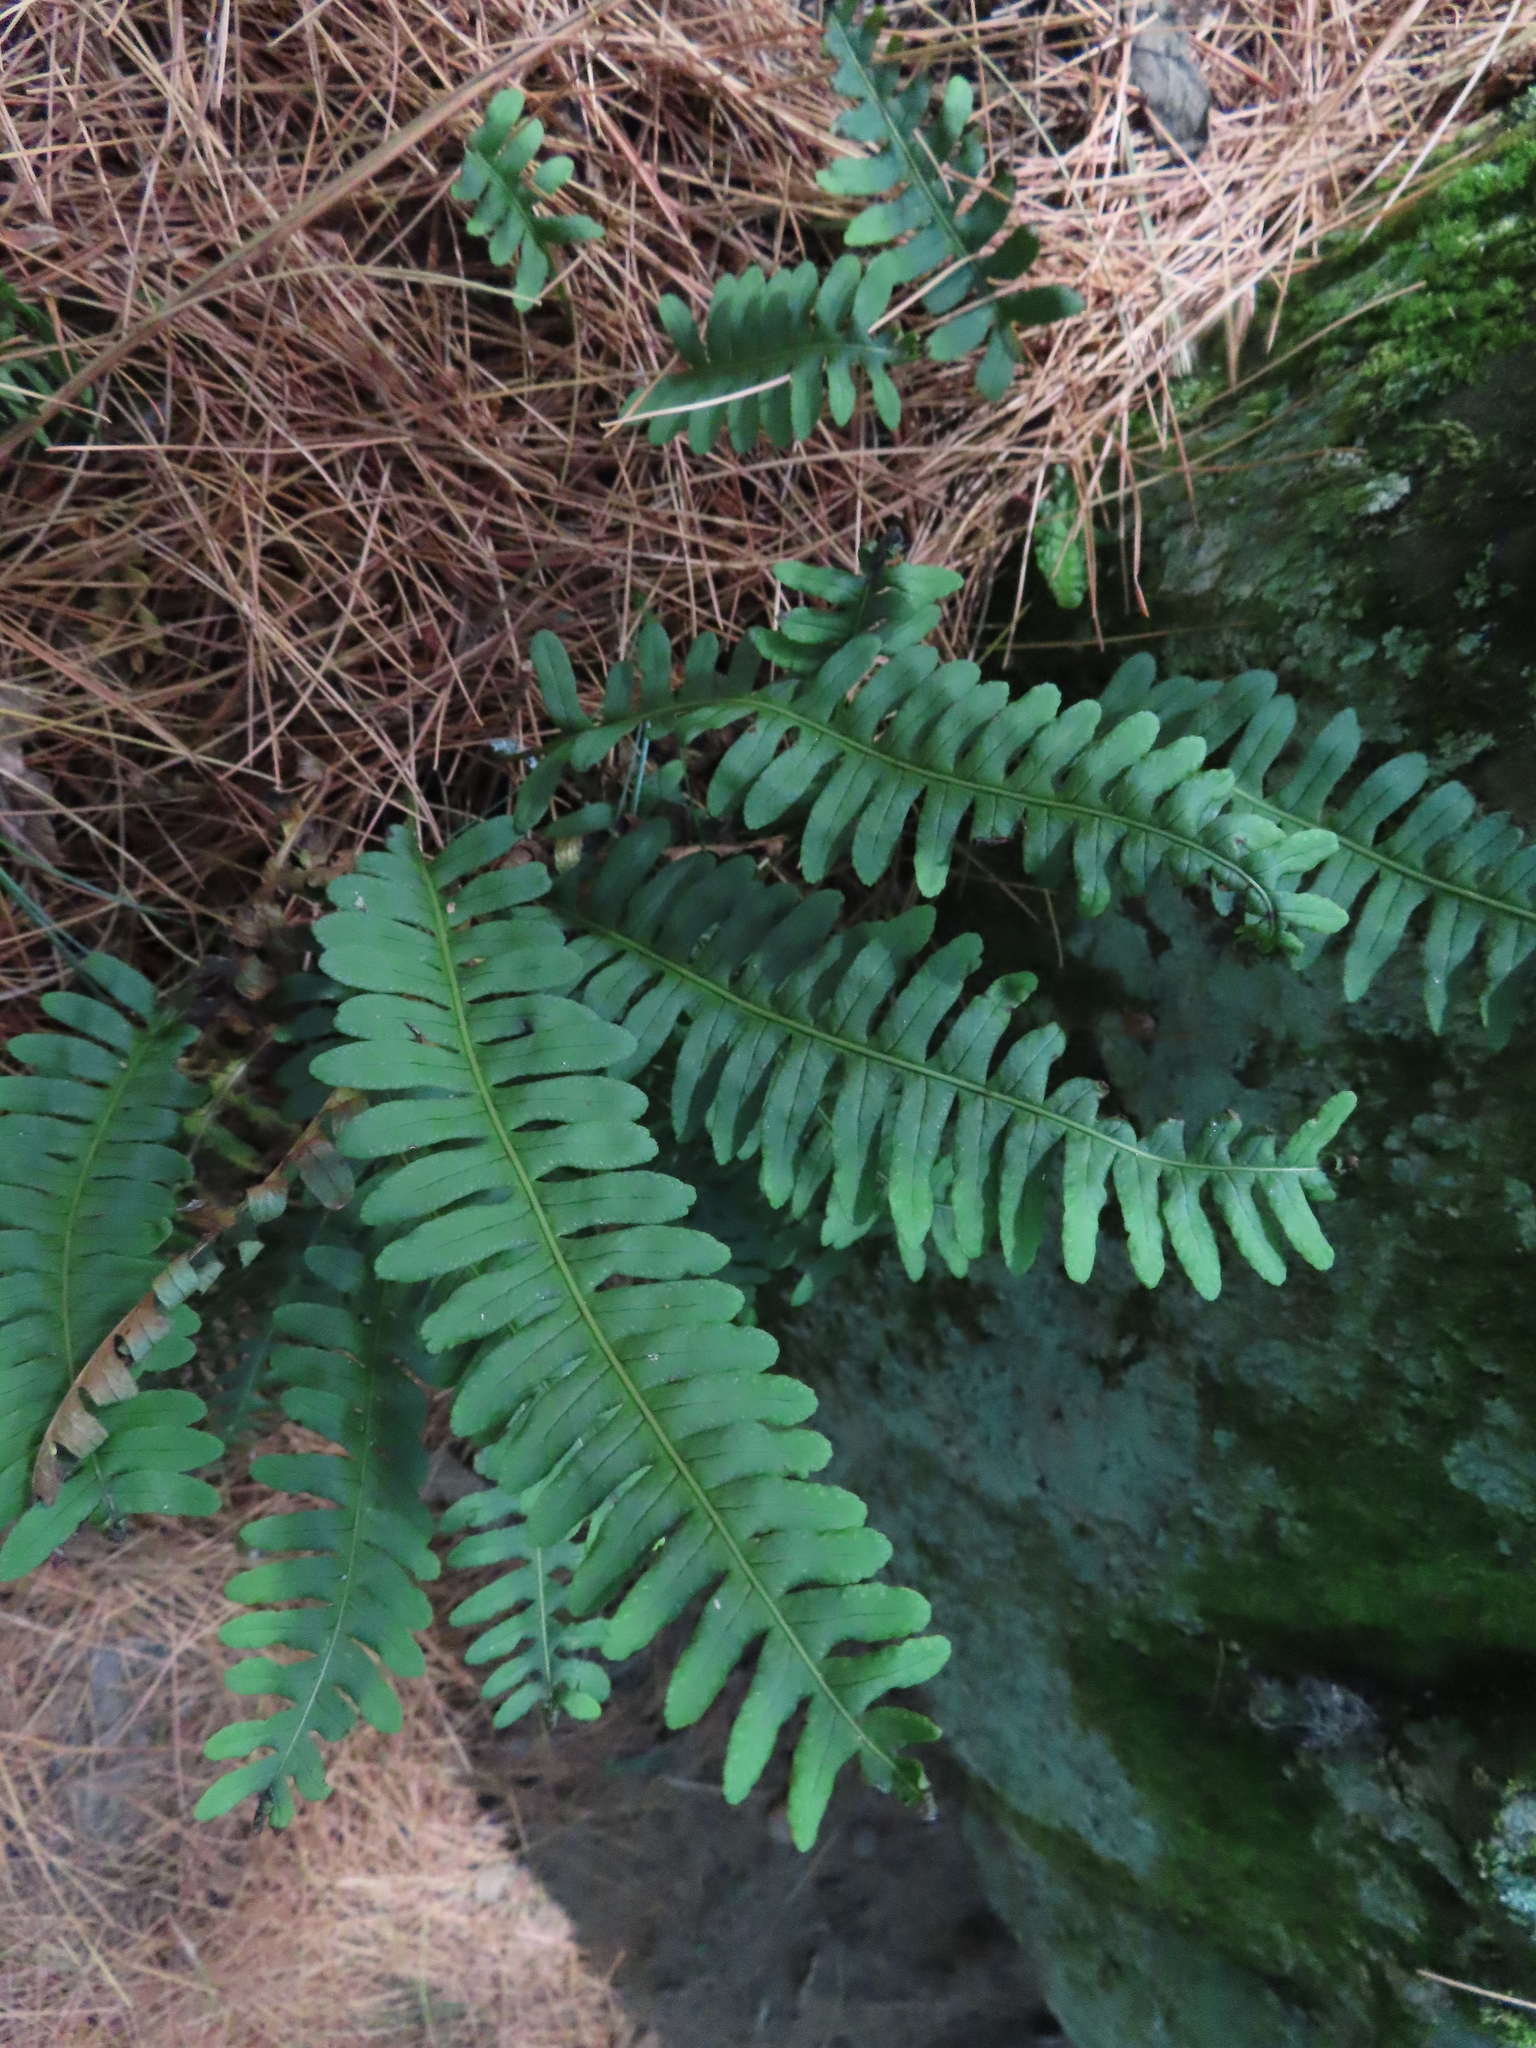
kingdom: Plantae
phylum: Tracheophyta
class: Polypodiopsida
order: Polypodiales
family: Polypodiaceae
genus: Polypodium
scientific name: Polypodium virginianum
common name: American wall fern
